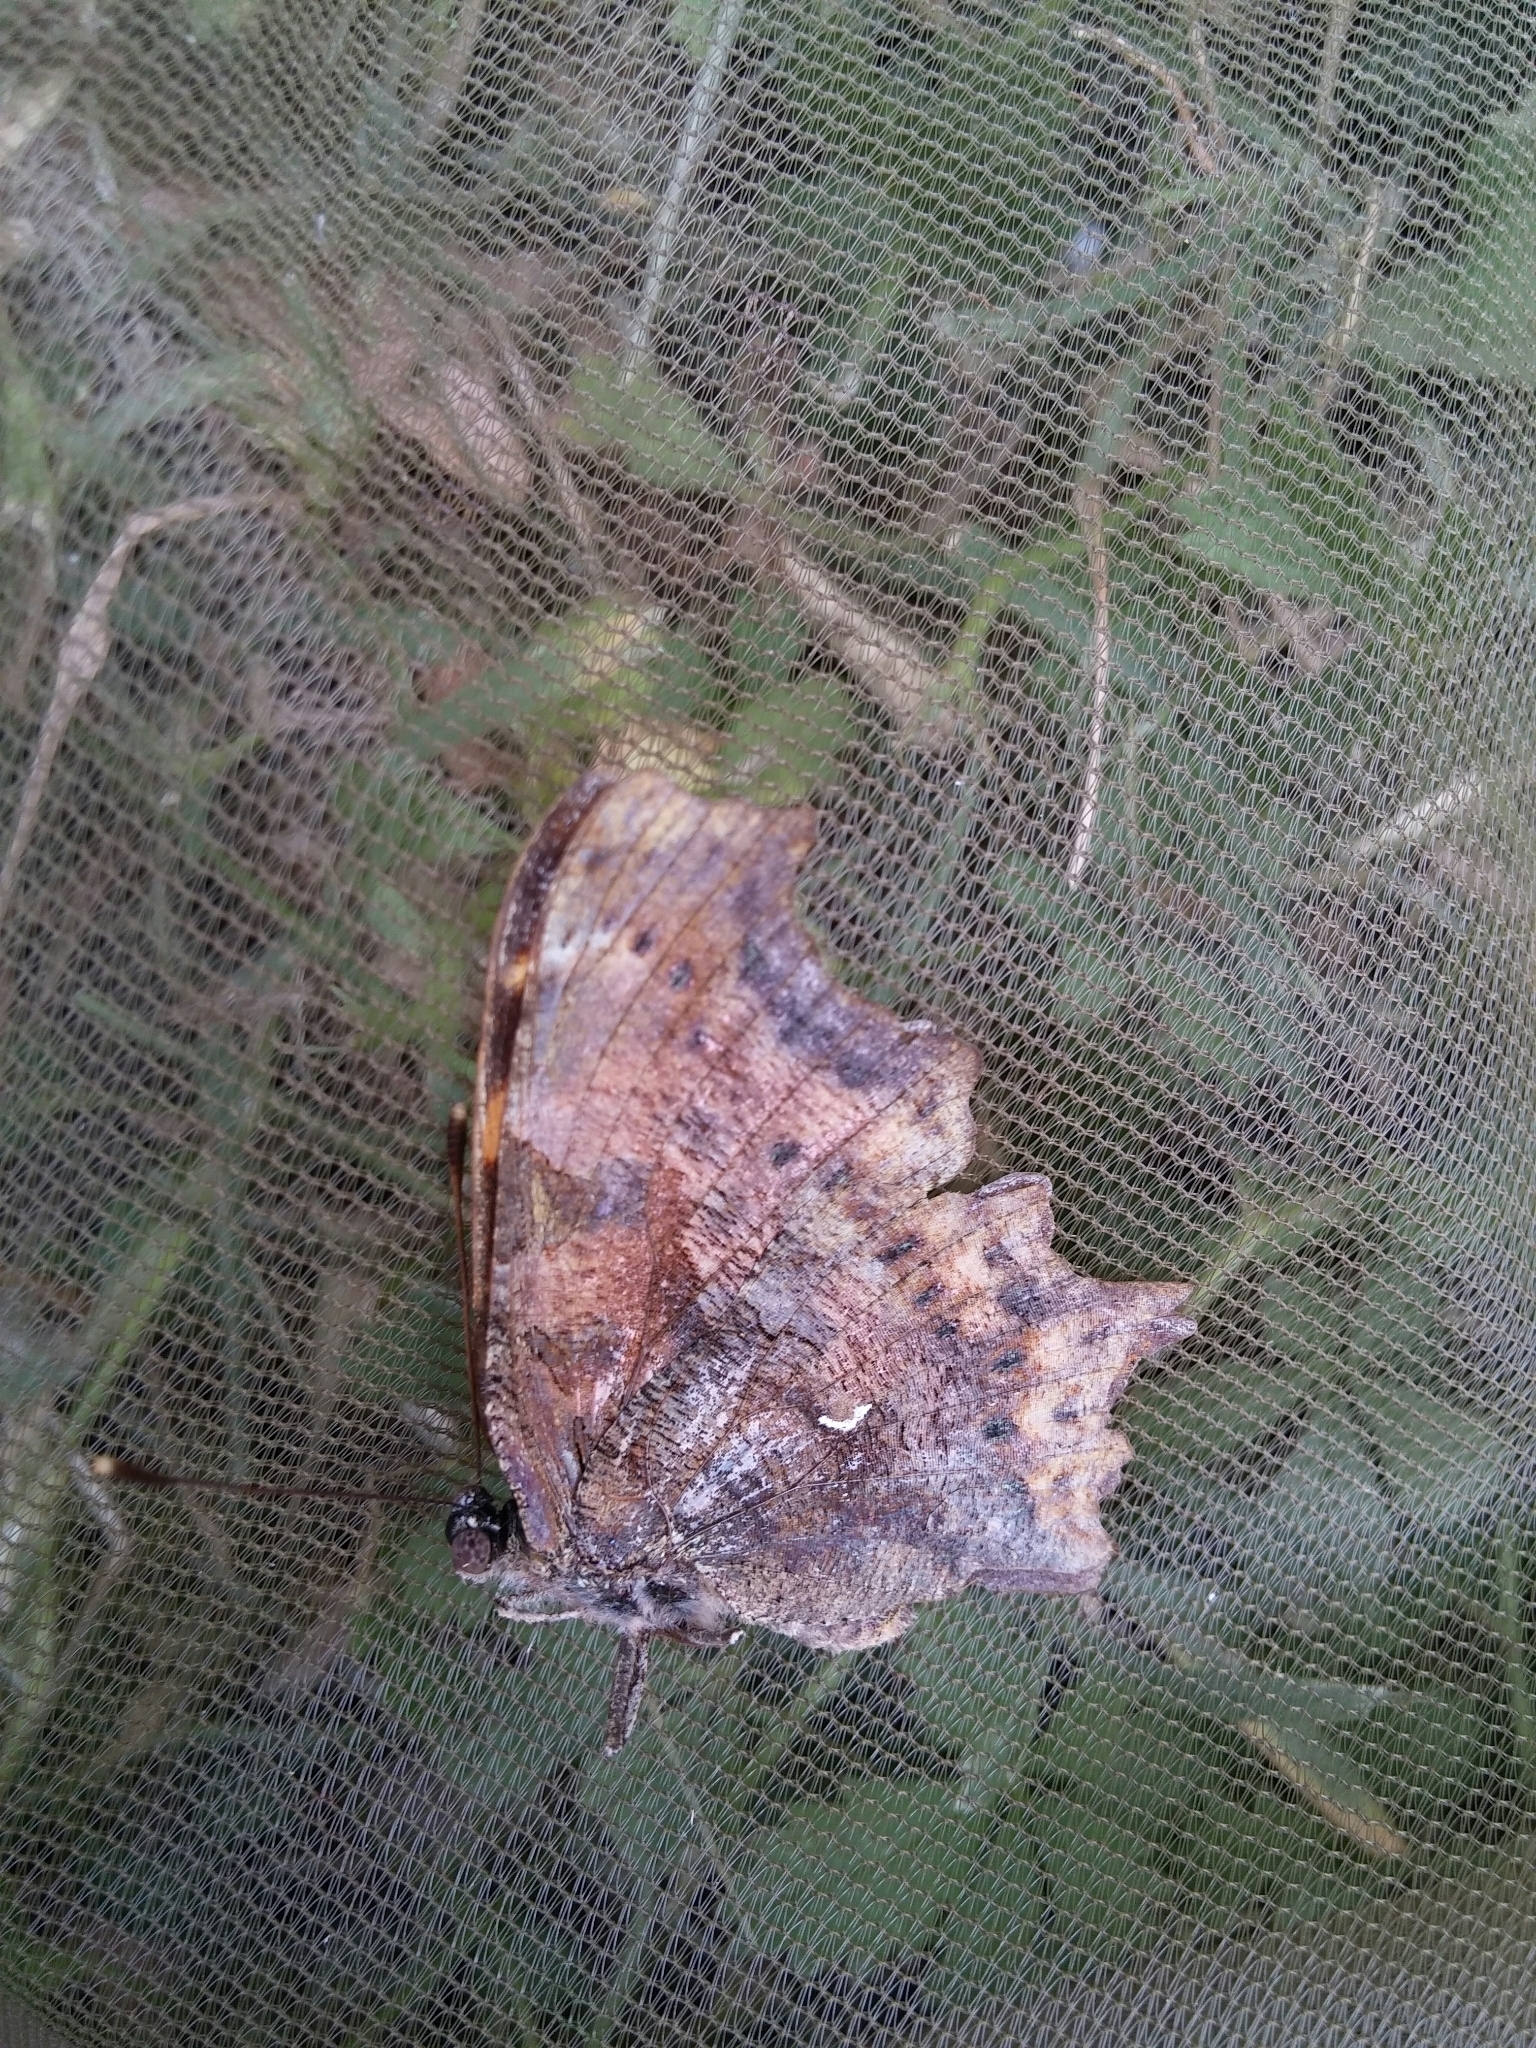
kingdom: Animalia
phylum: Arthropoda
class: Insecta
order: Lepidoptera
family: Nymphalidae
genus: Polygonia
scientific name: Polygonia c-album
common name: Comma
